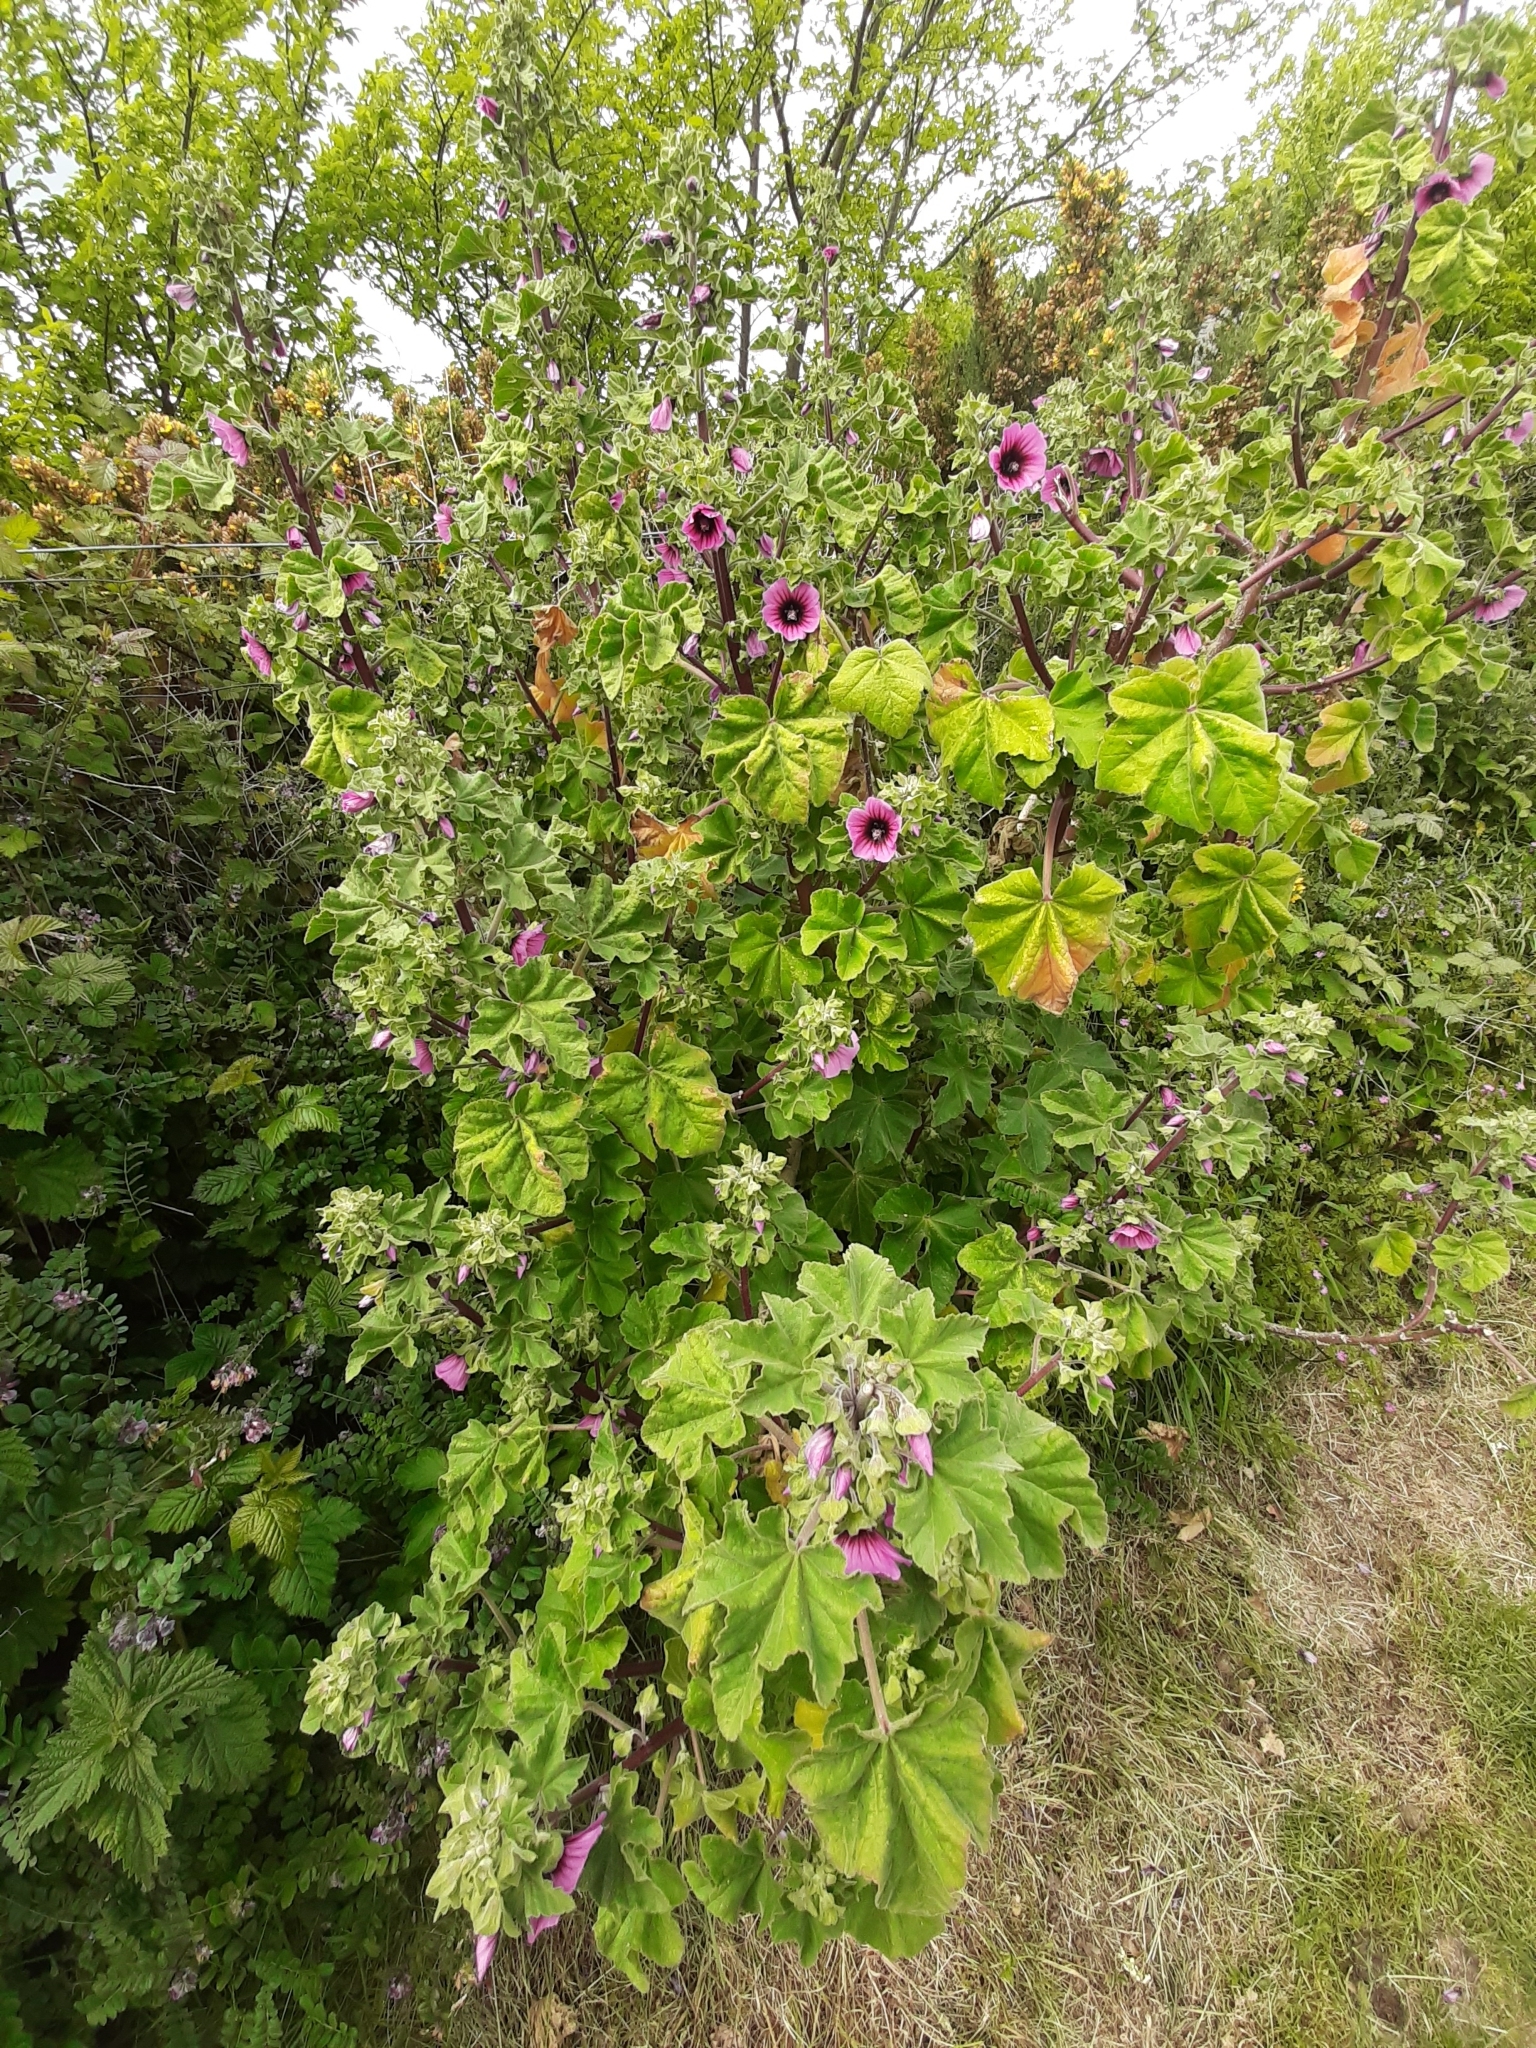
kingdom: Plantae
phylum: Tracheophyta
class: Magnoliopsida
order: Malvales
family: Malvaceae
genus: Malva
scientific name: Malva arborea
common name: Tree mallow
